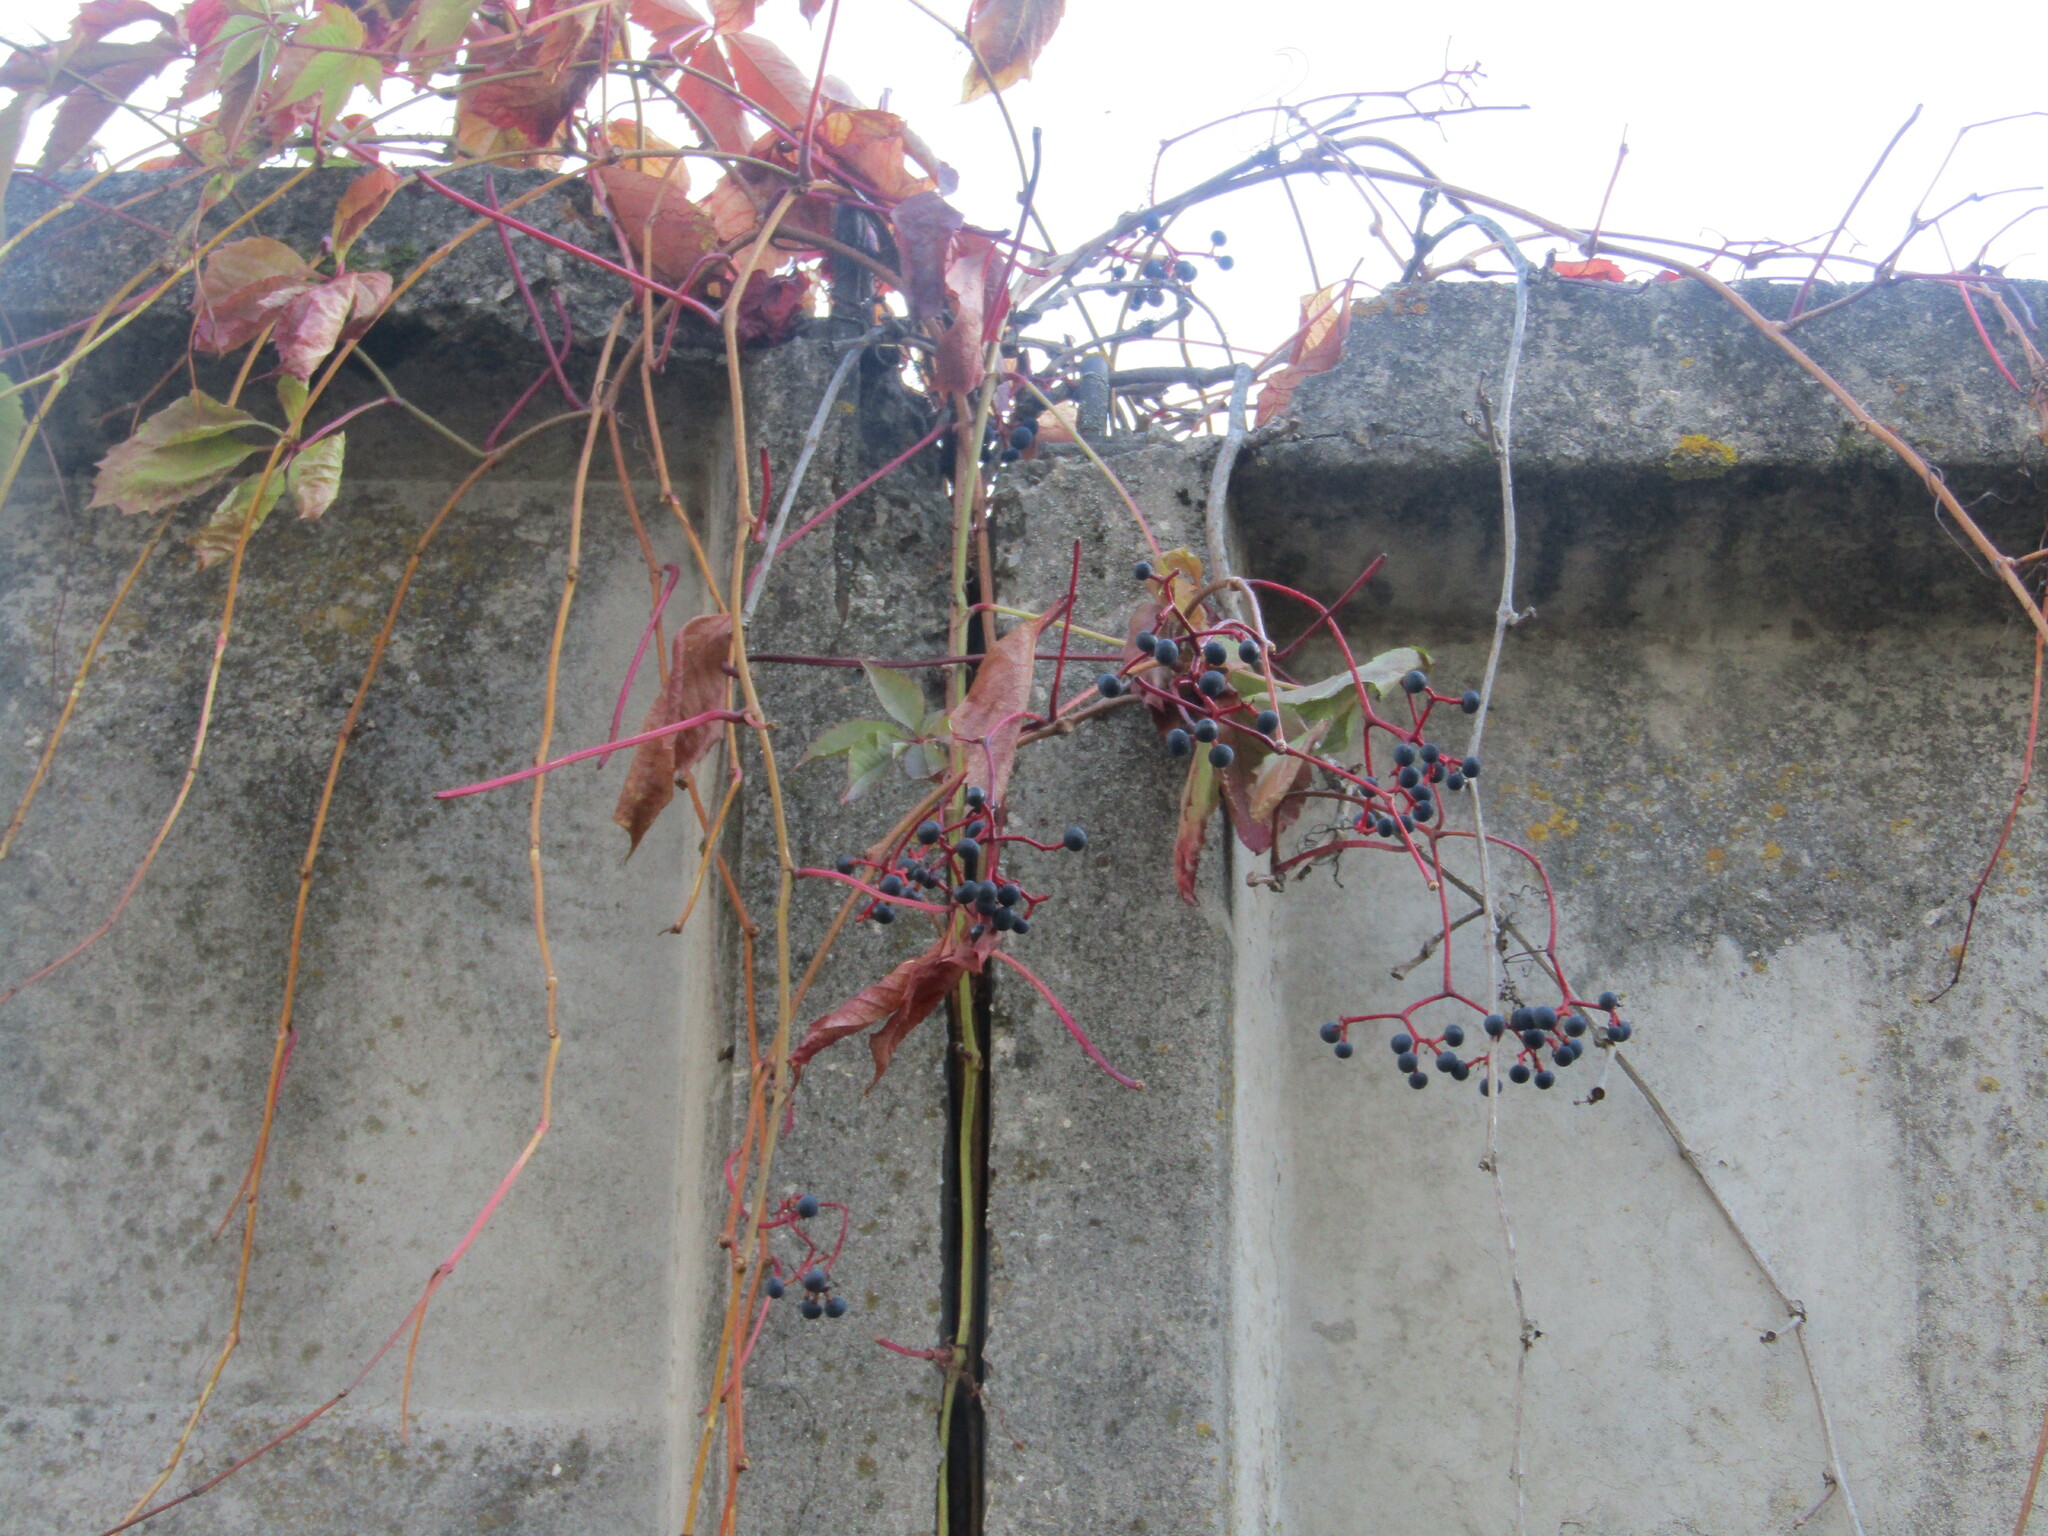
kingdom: Plantae
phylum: Tracheophyta
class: Magnoliopsida
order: Vitales
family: Vitaceae
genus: Parthenocissus
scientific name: Parthenocissus inserta
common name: False virginia-creeper
